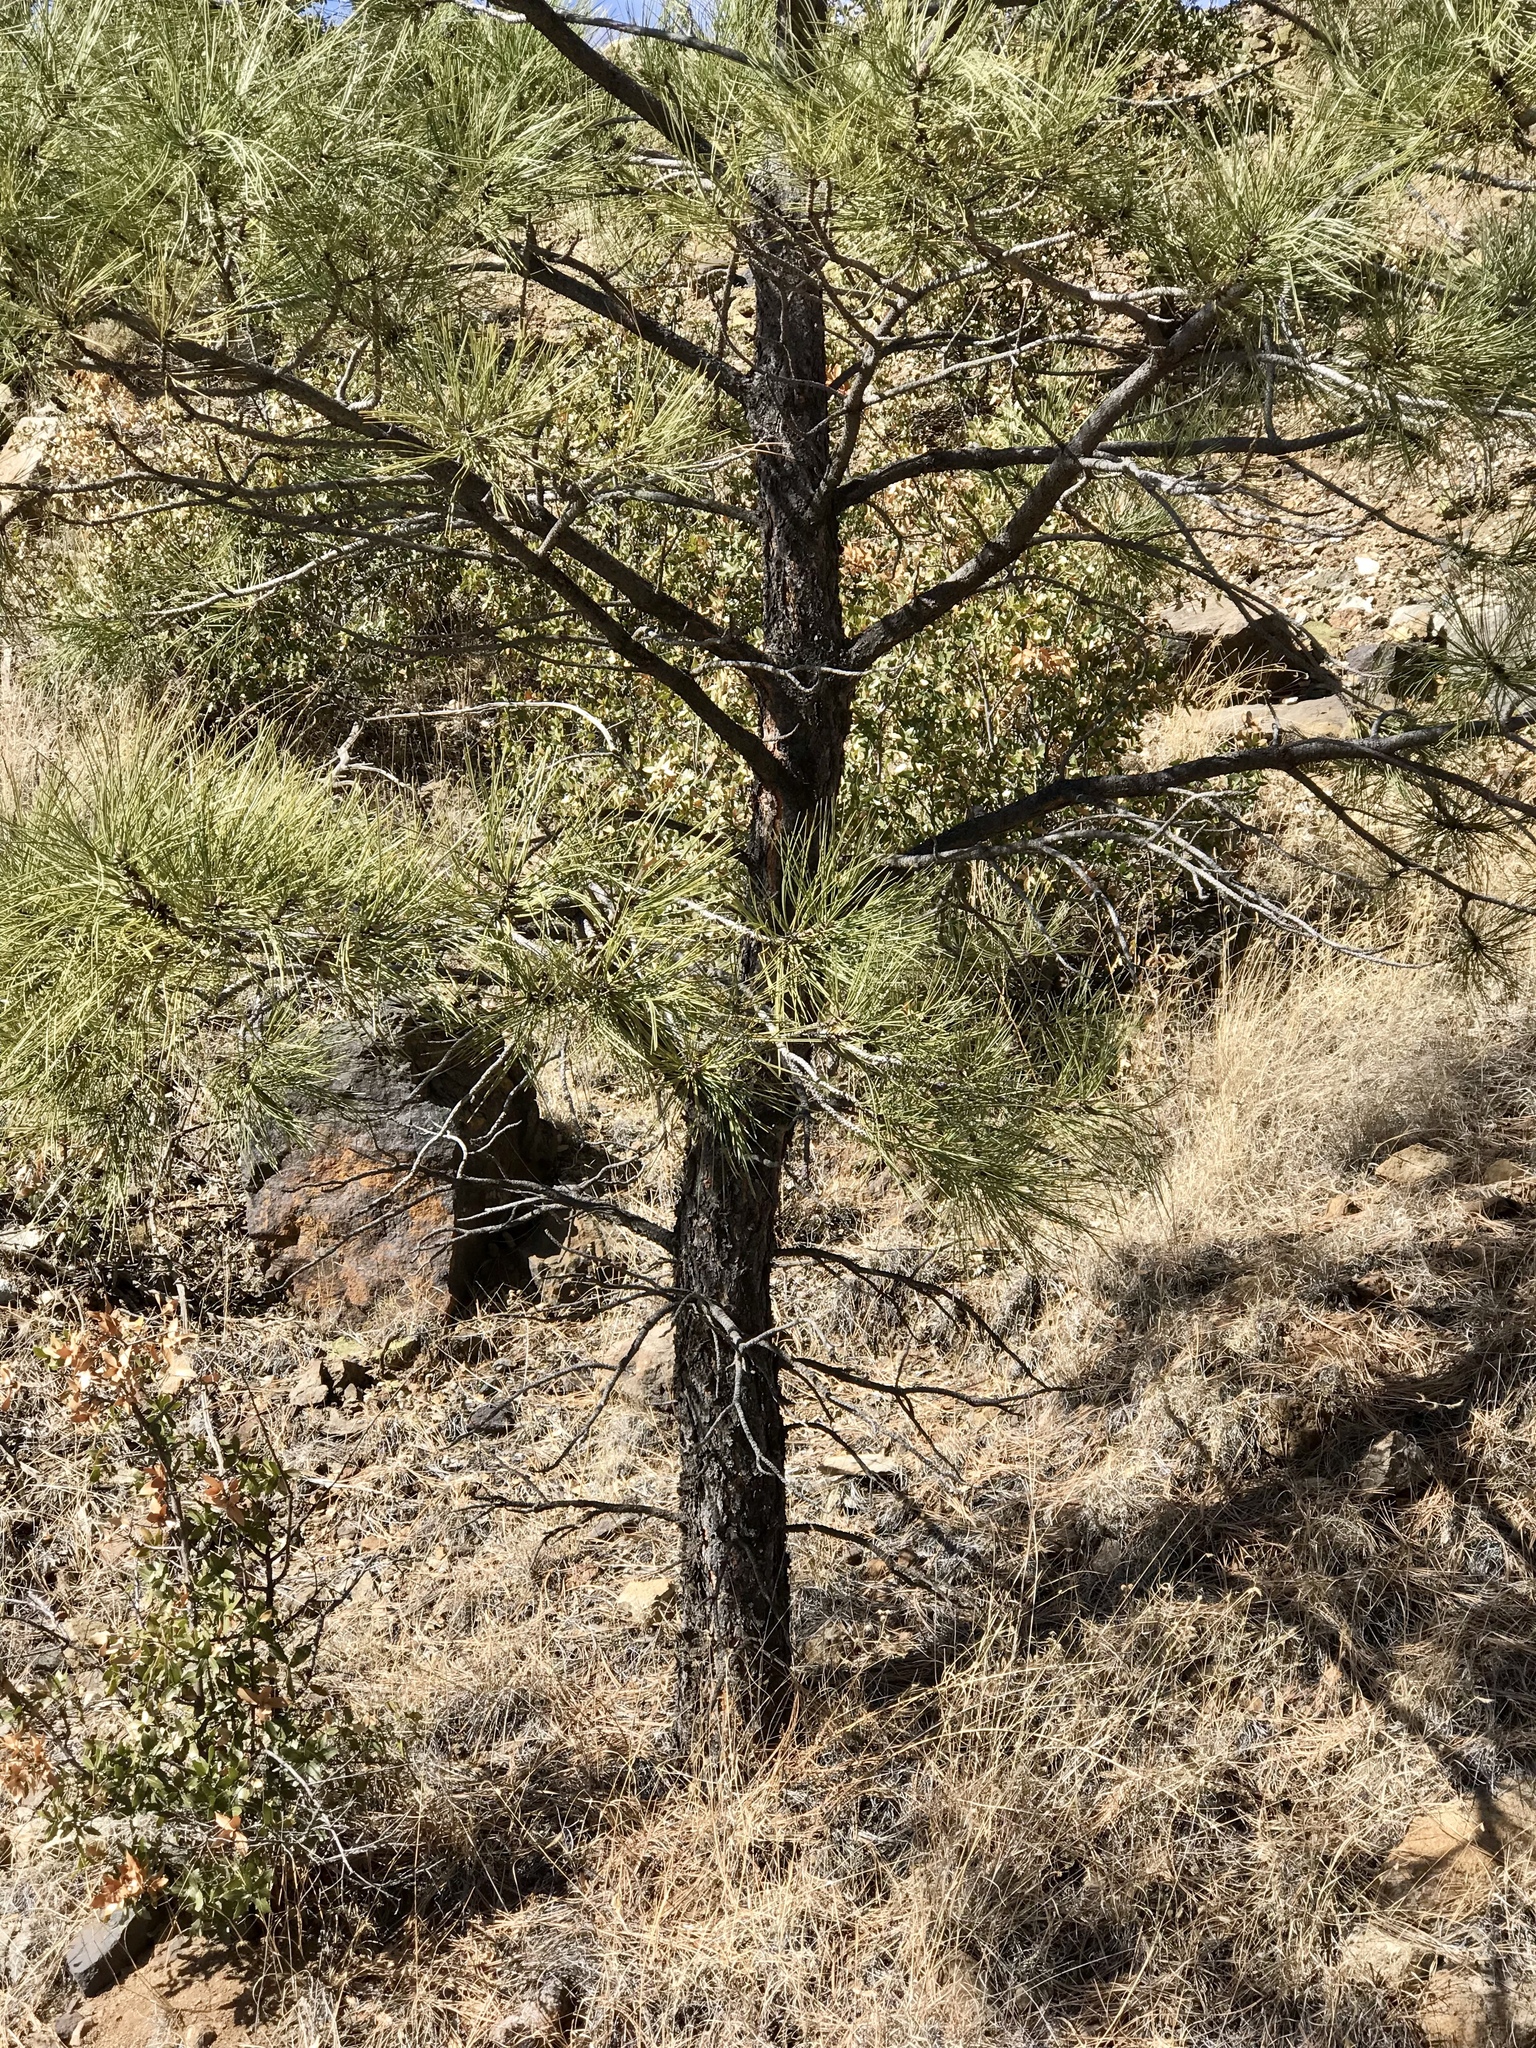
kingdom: Plantae
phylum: Tracheophyta
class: Pinopsida
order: Pinales
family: Pinaceae
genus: Pinus
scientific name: Pinus ponderosa
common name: Western yellow-pine
